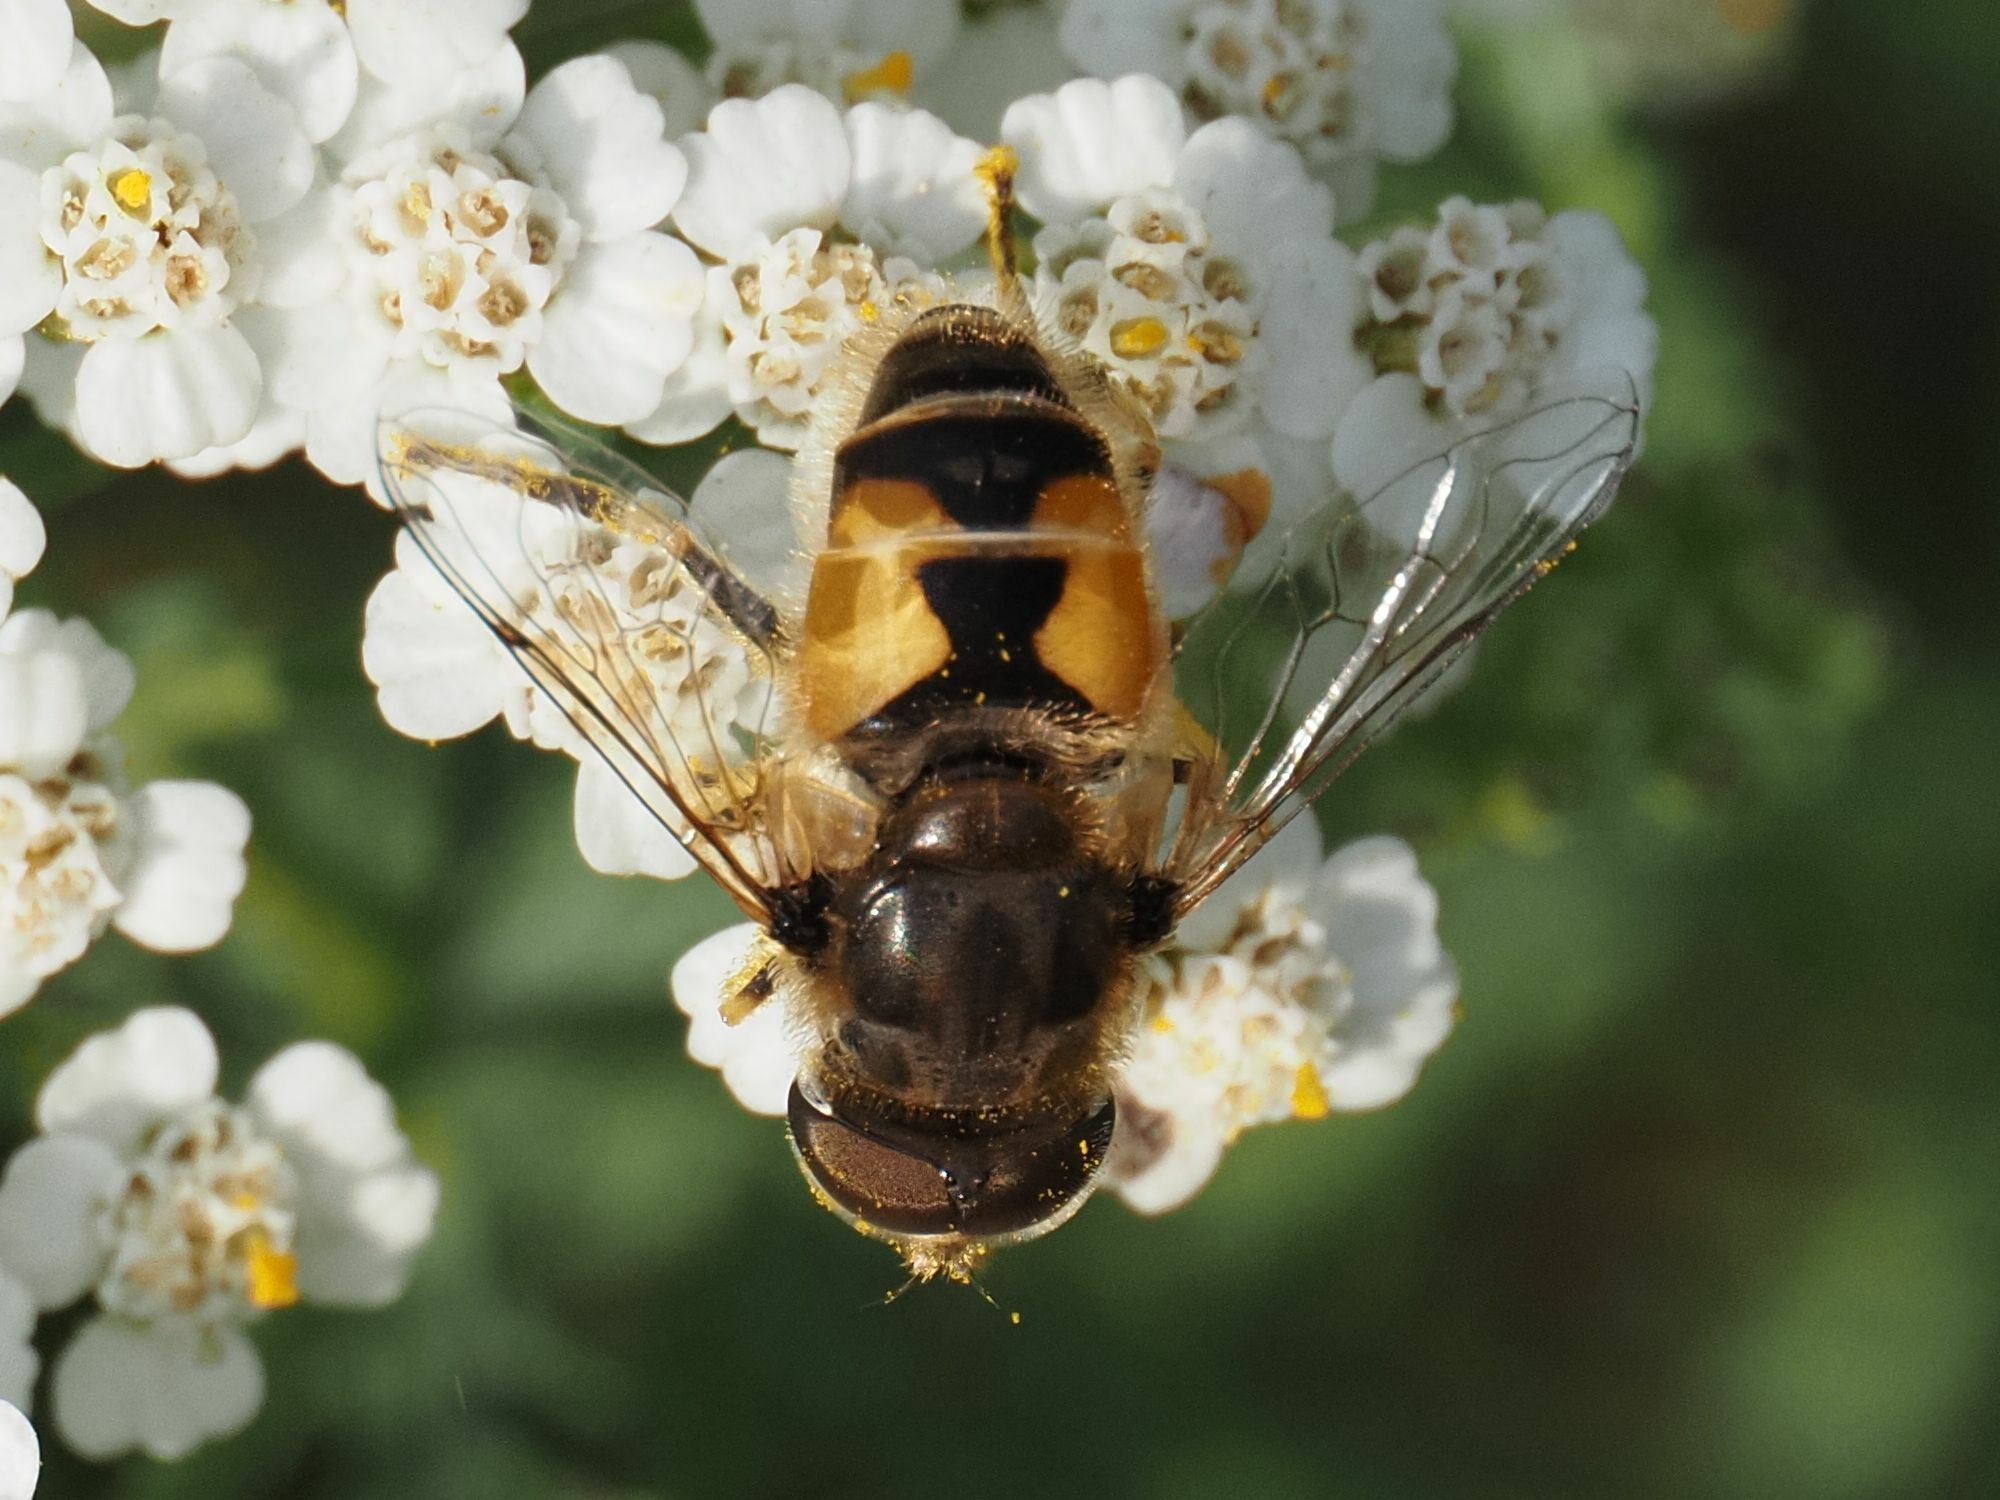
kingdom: Animalia
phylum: Arthropoda
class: Insecta
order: Diptera
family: Syrphidae
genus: Eristalis
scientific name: Eristalis arbustorum
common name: Hover fly
